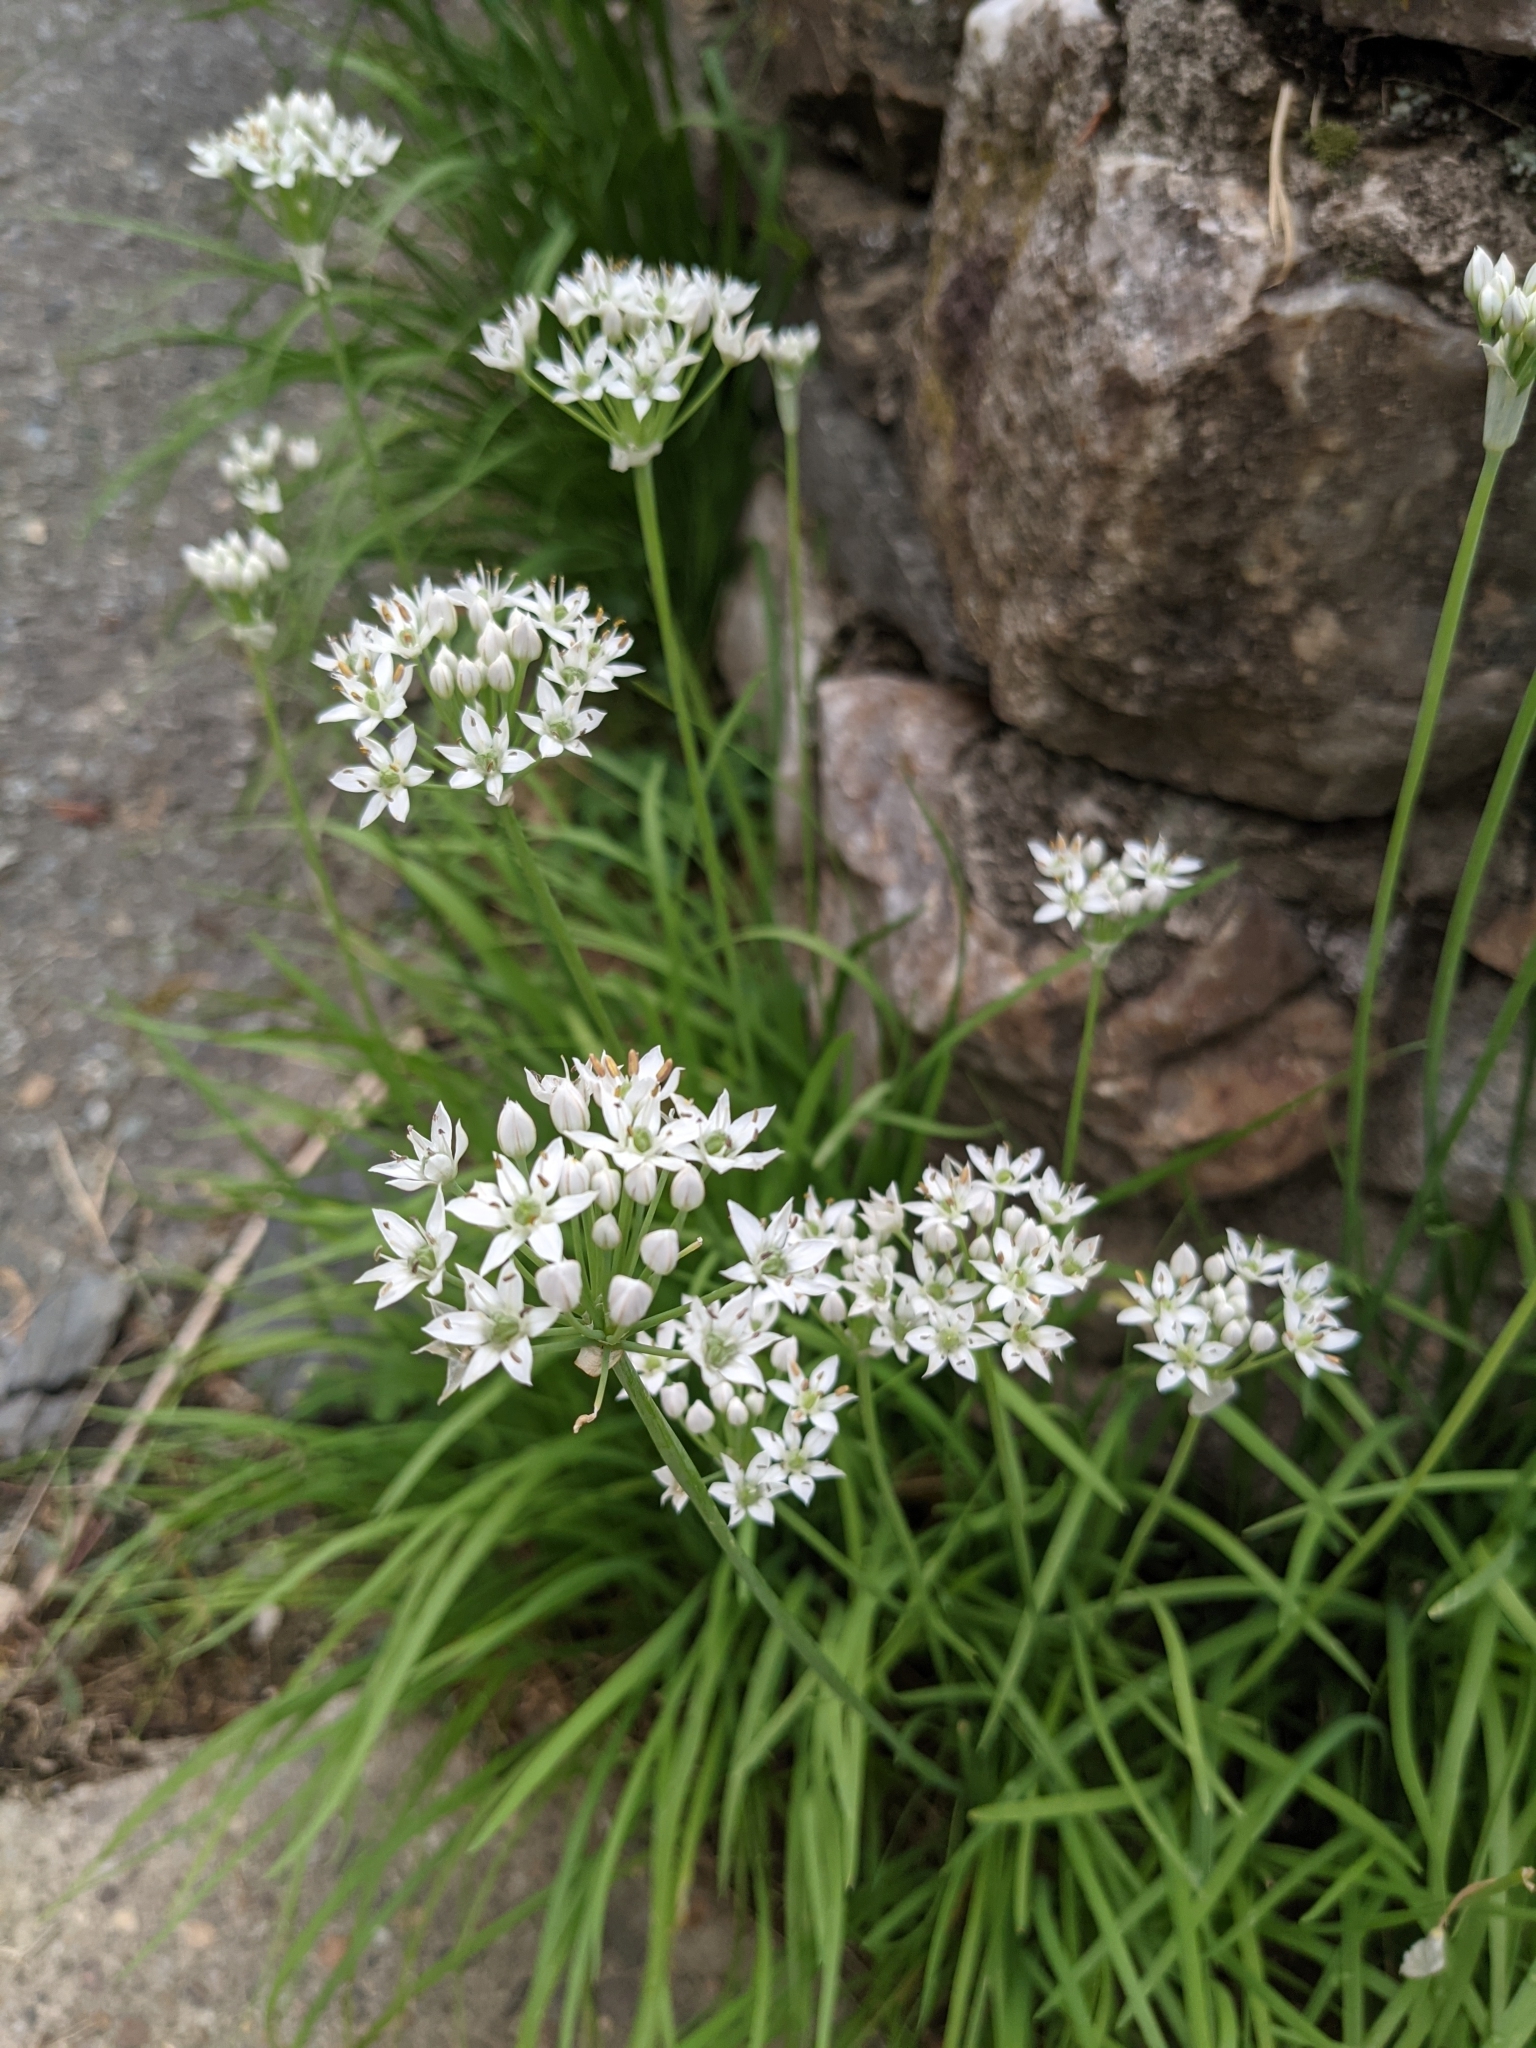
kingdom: Plantae
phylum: Tracheophyta
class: Liliopsida
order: Asparagales
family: Amaryllidaceae
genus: Allium
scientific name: Allium tuberosum
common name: Chinese chives
